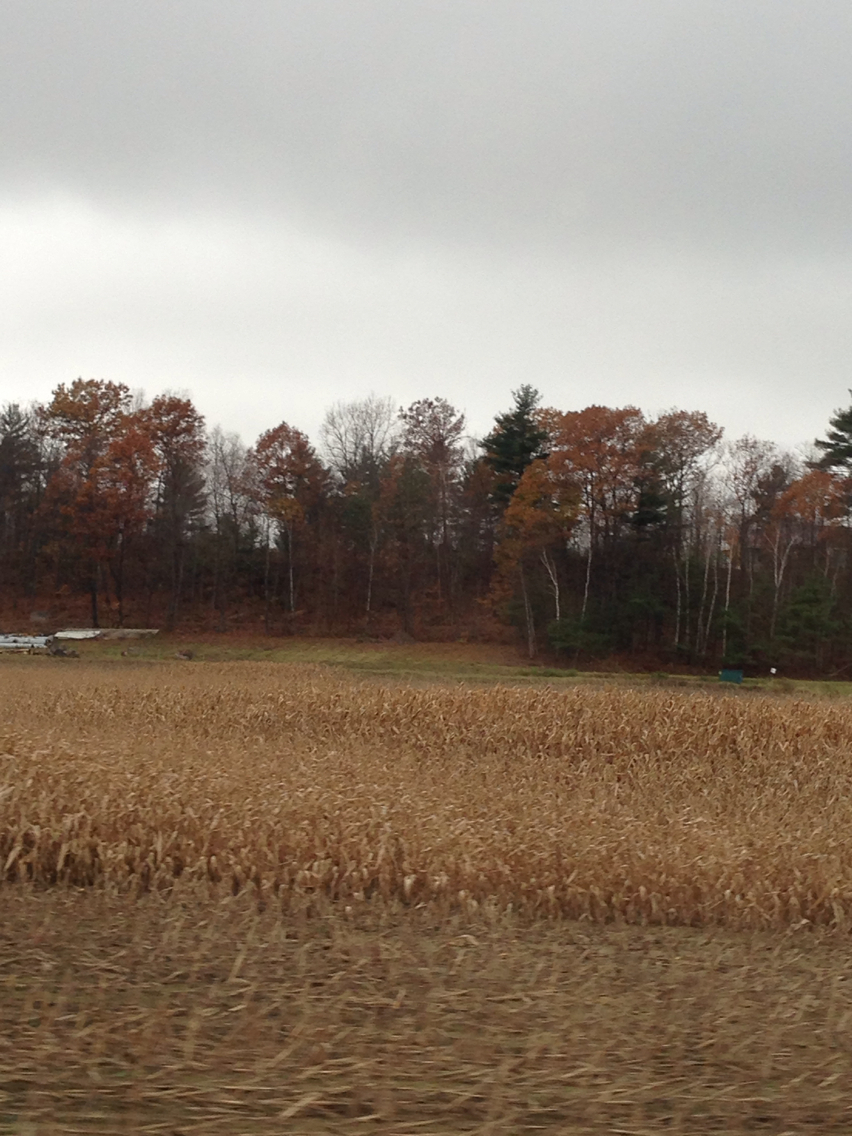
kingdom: Plantae
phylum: Tracheophyta
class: Magnoliopsida
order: Fagales
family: Fagaceae
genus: Quercus
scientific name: Quercus rubra
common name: Red oak
